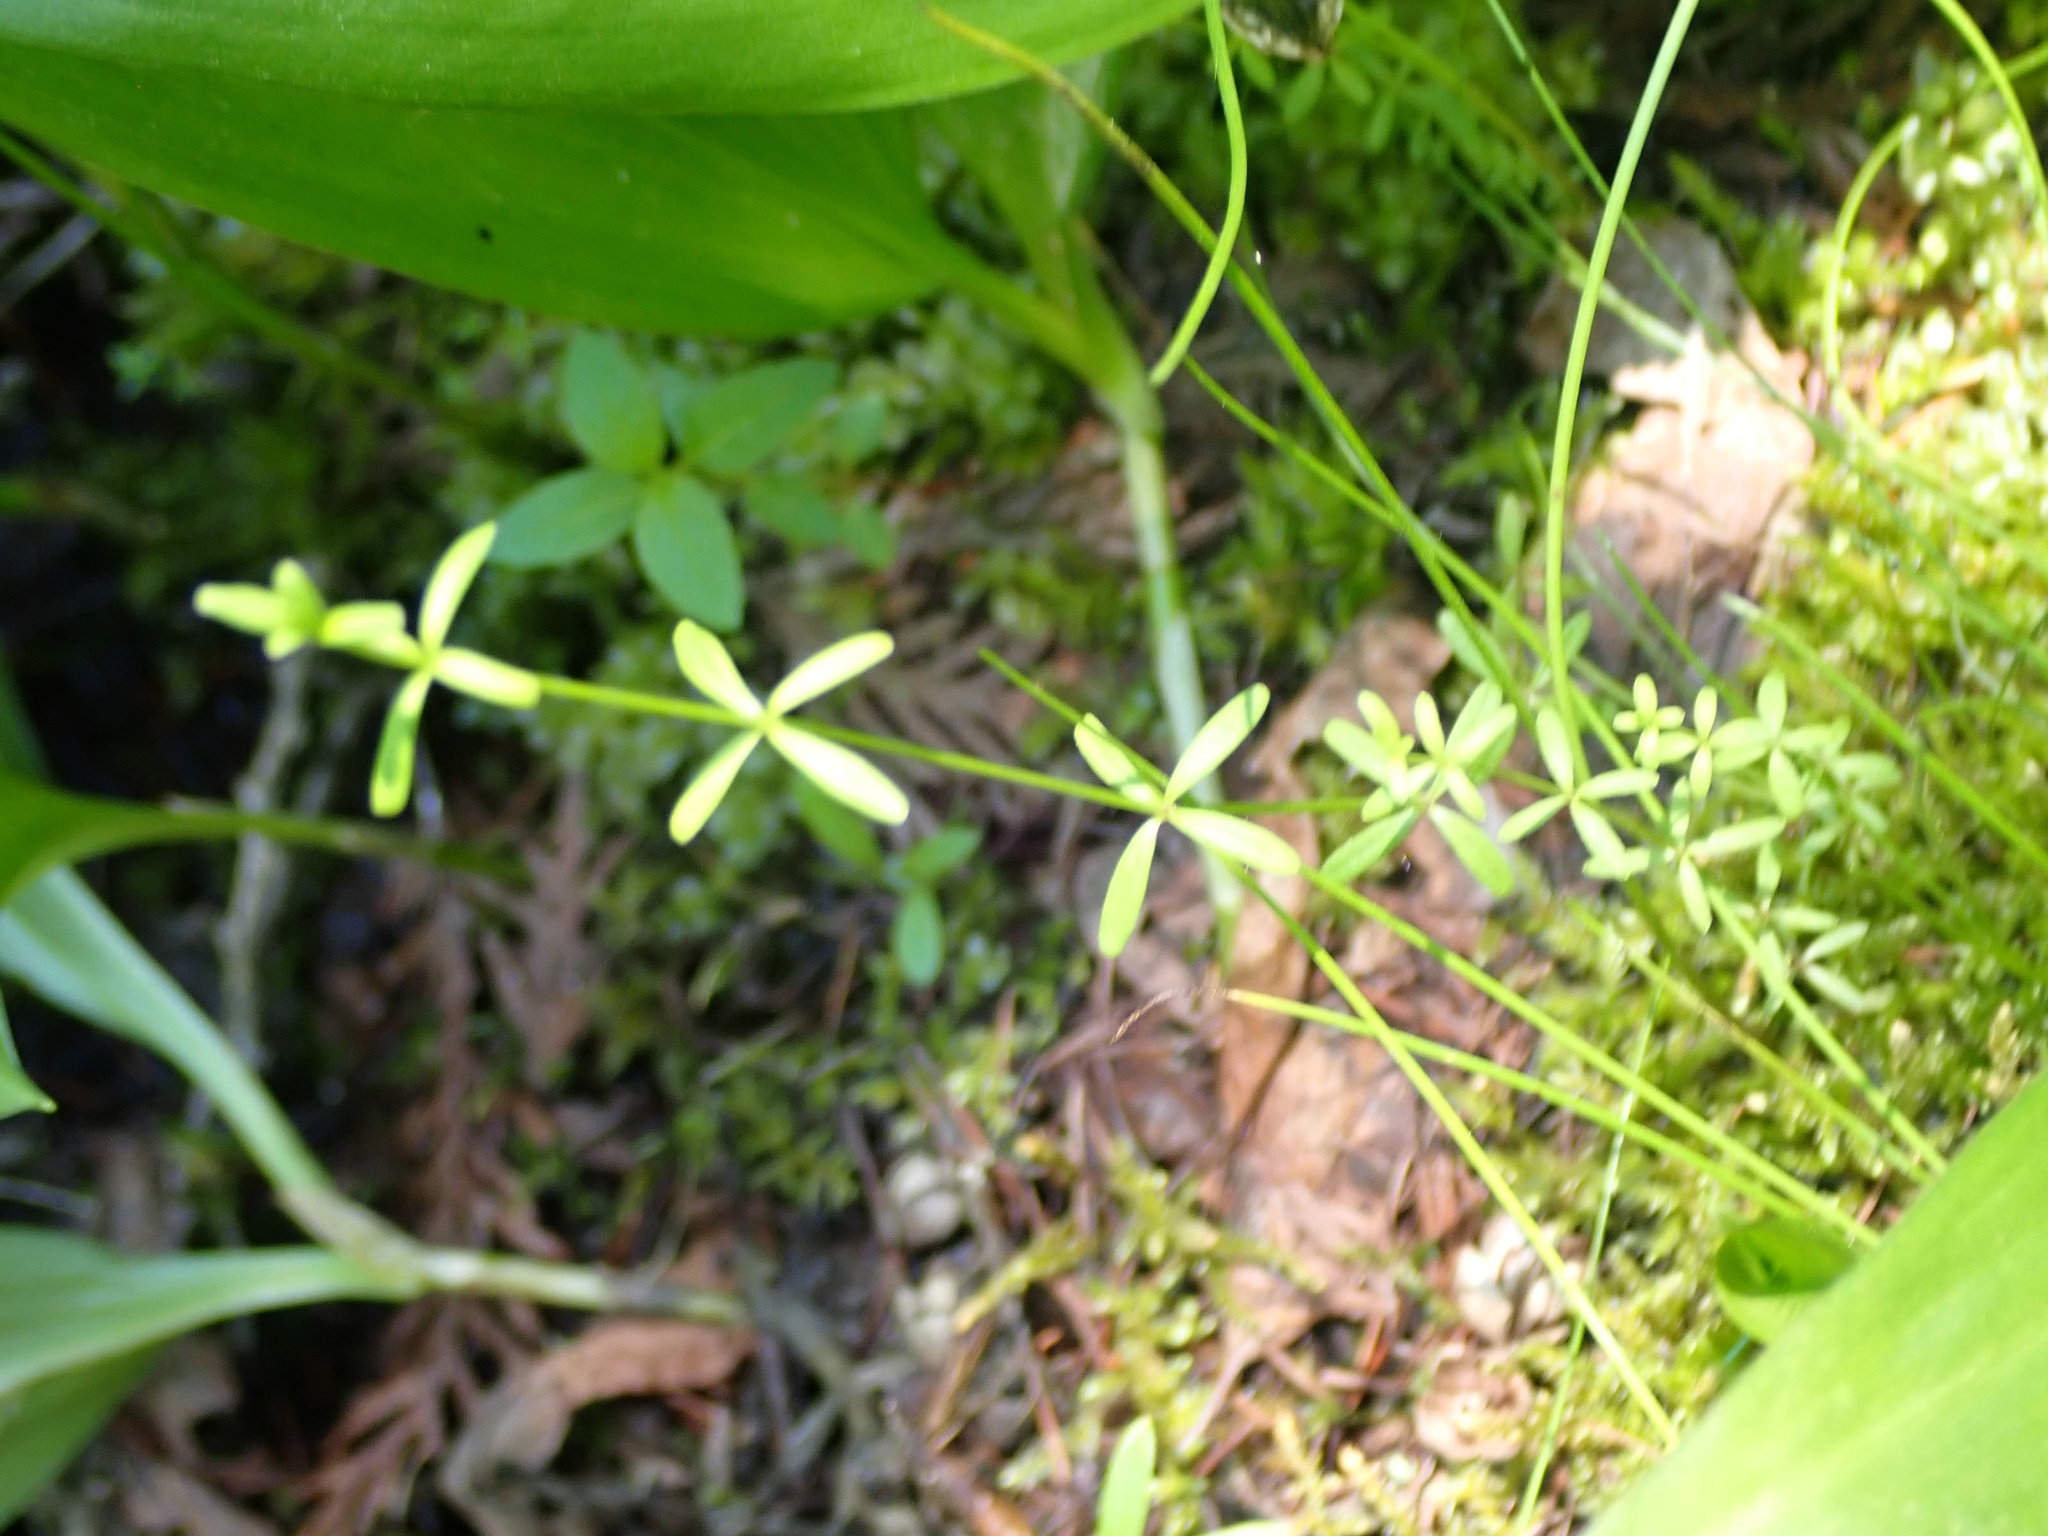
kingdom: Plantae
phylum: Tracheophyta
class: Magnoliopsida
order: Gentianales
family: Rubiaceae
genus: Galium
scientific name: Galium trifidum
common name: Small bedstraw
